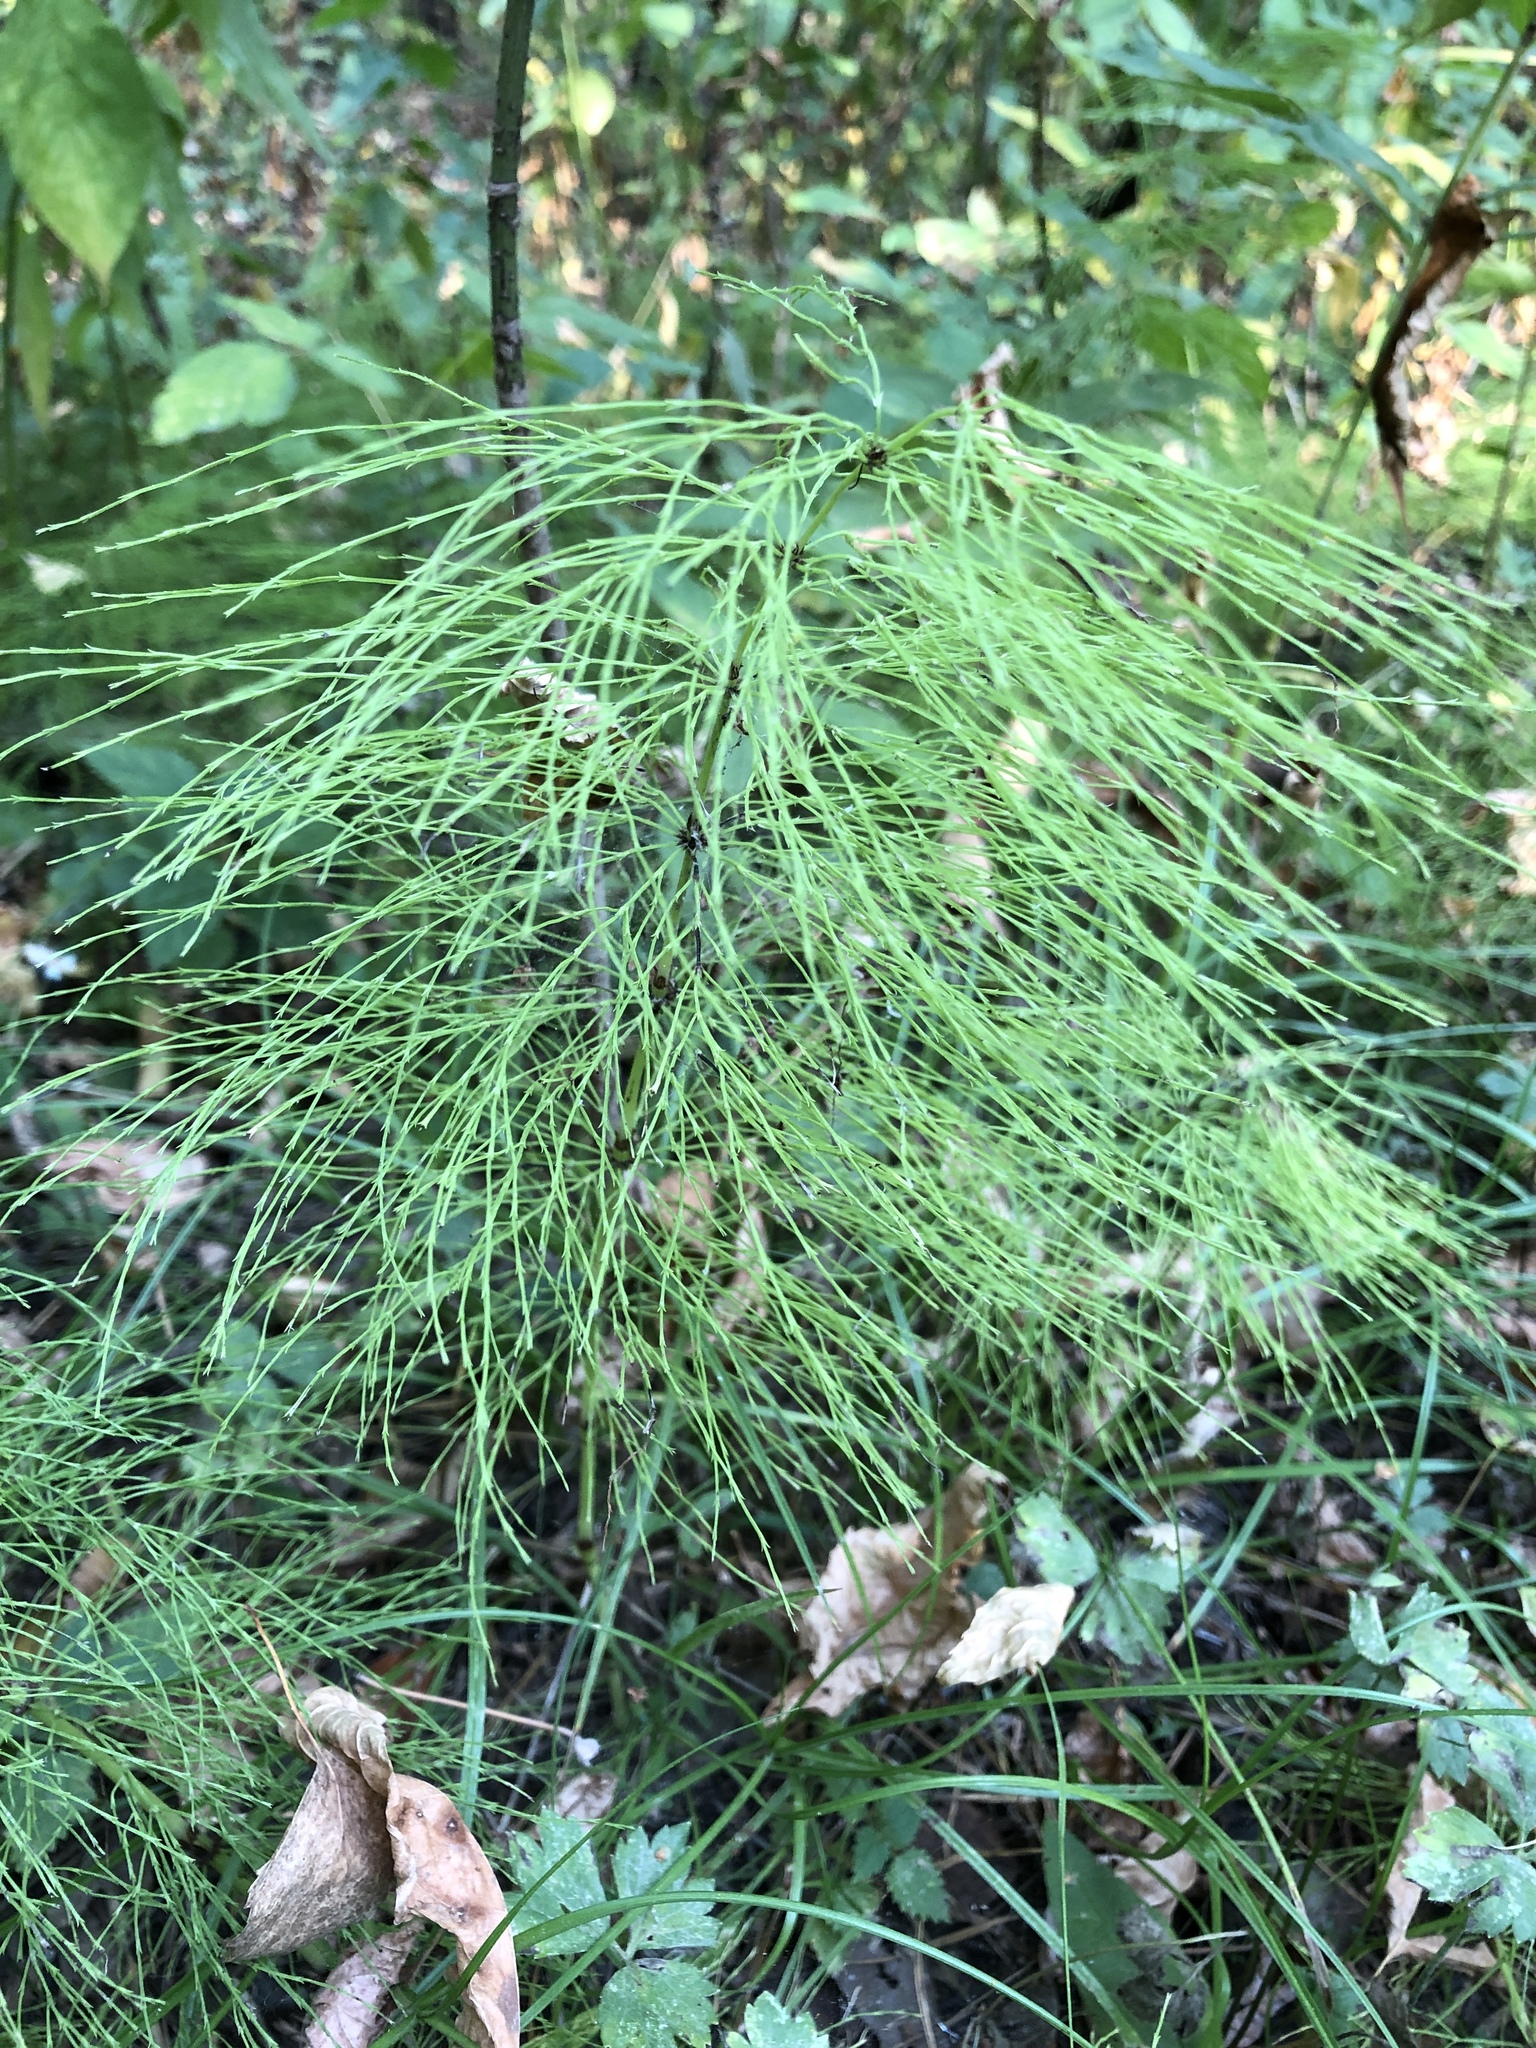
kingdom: Plantae
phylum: Tracheophyta
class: Polypodiopsida
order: Equisetales
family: Equisetaceae
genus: Equisetum
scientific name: Equisetum sylvaticum
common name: Wood horsetail
